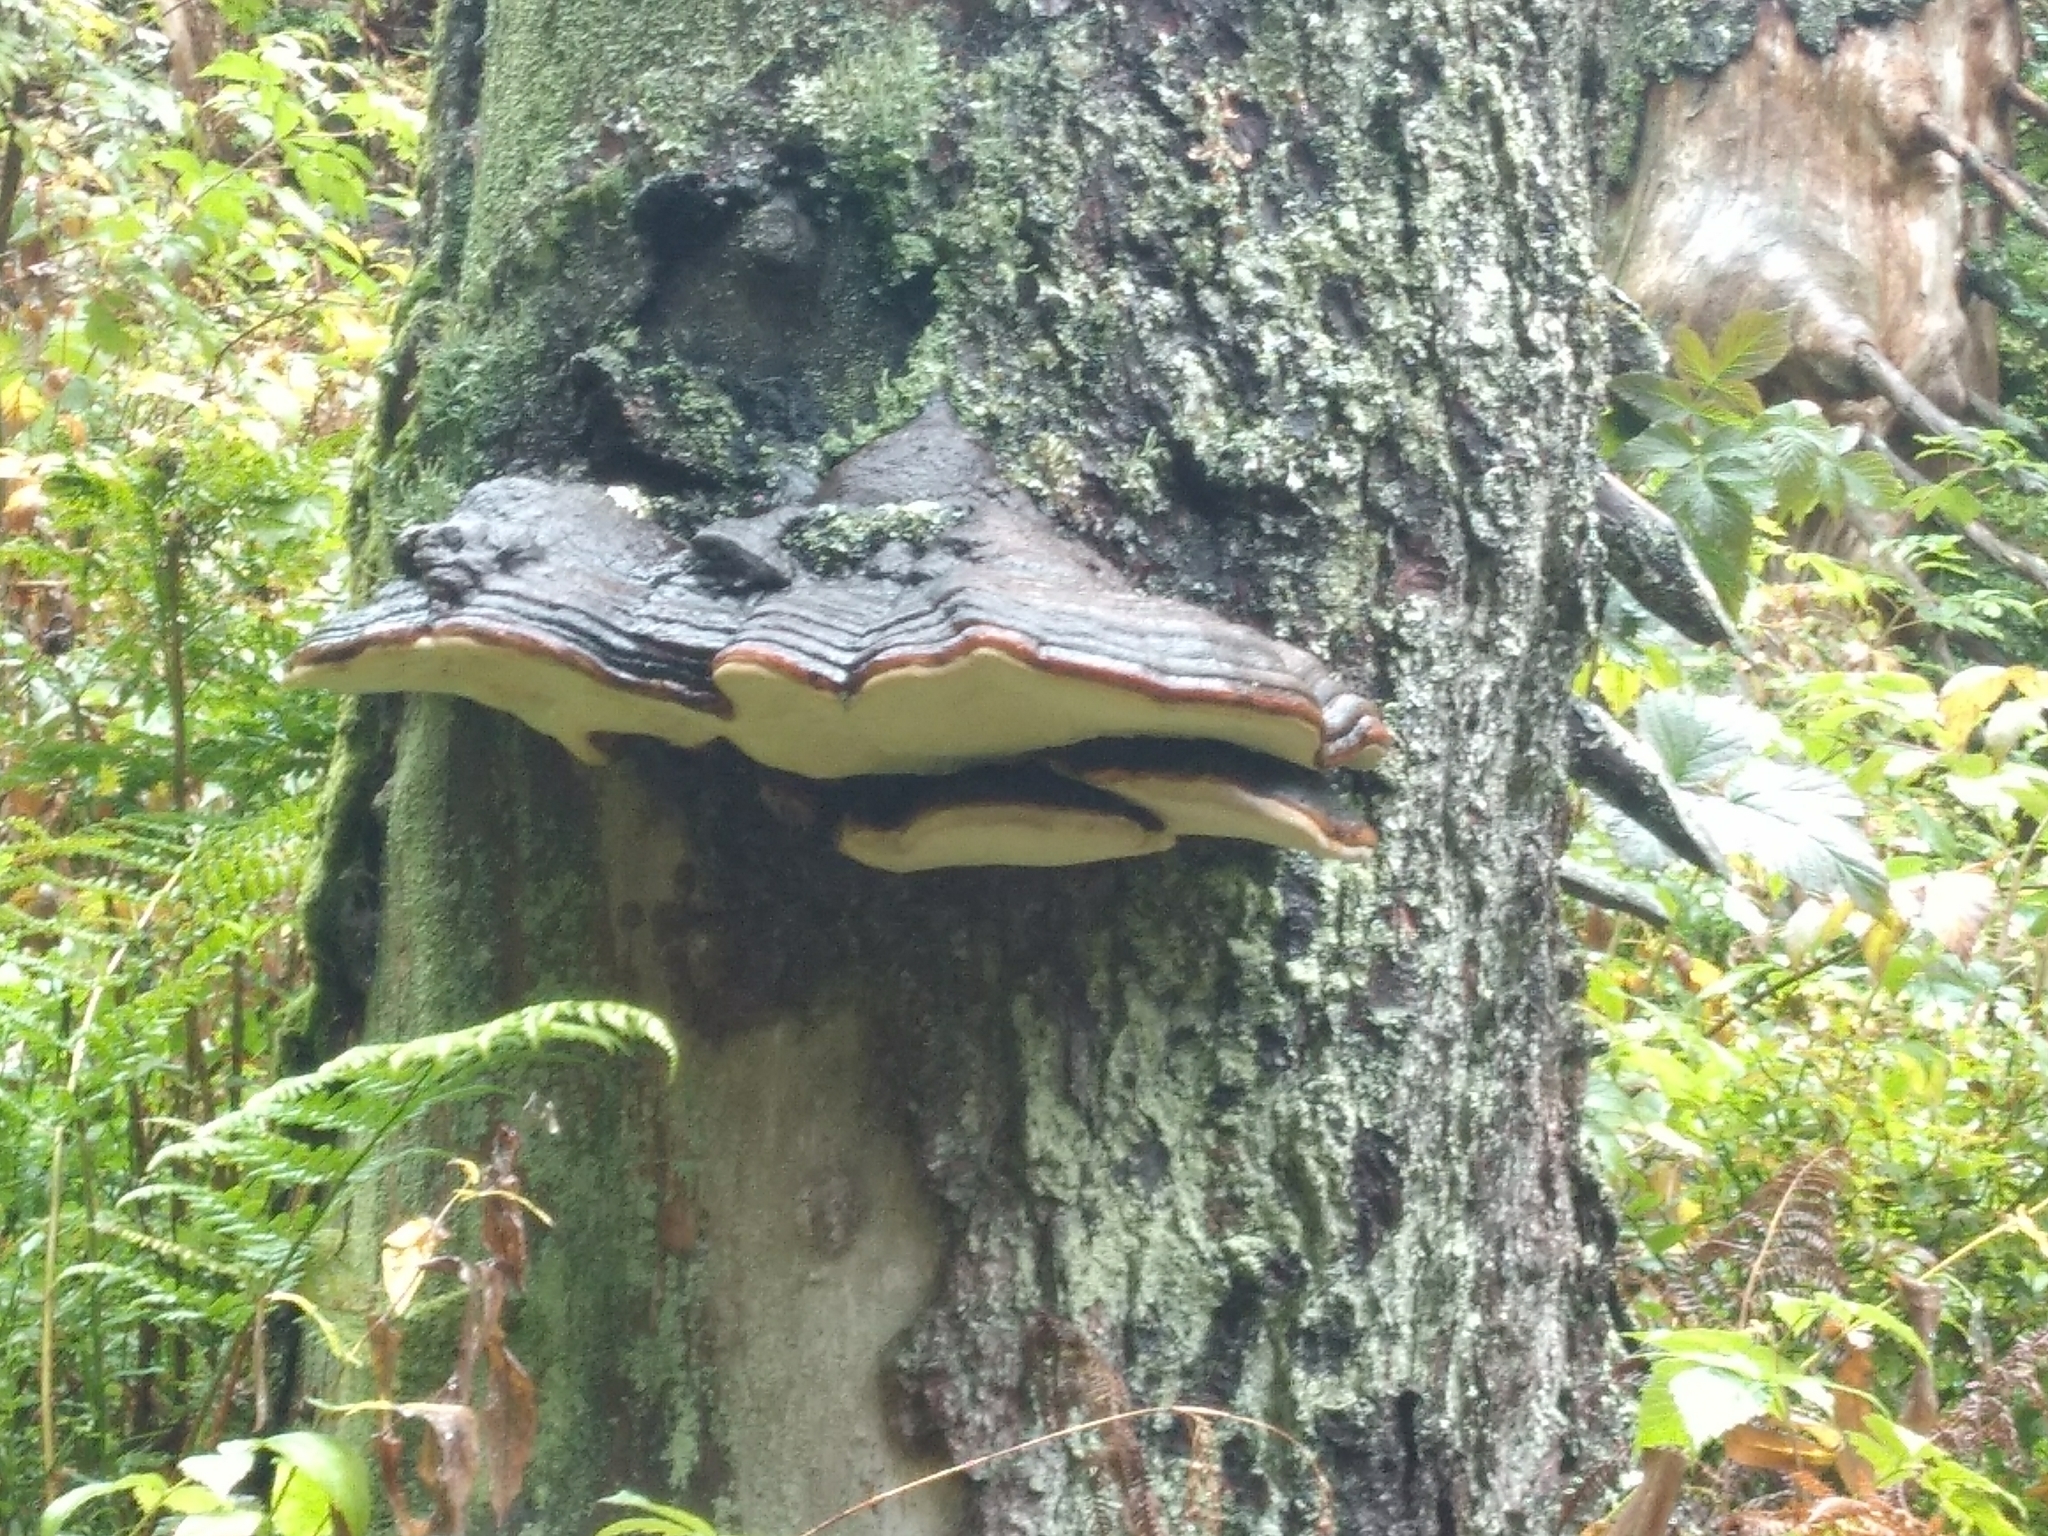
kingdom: Fungi
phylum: Basidiomycota
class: Agaricomycetes
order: Polyporales
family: Fomitopsidaceae
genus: Fomitopsis
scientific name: Fomitopsis pinicola
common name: Red-belted bracket
